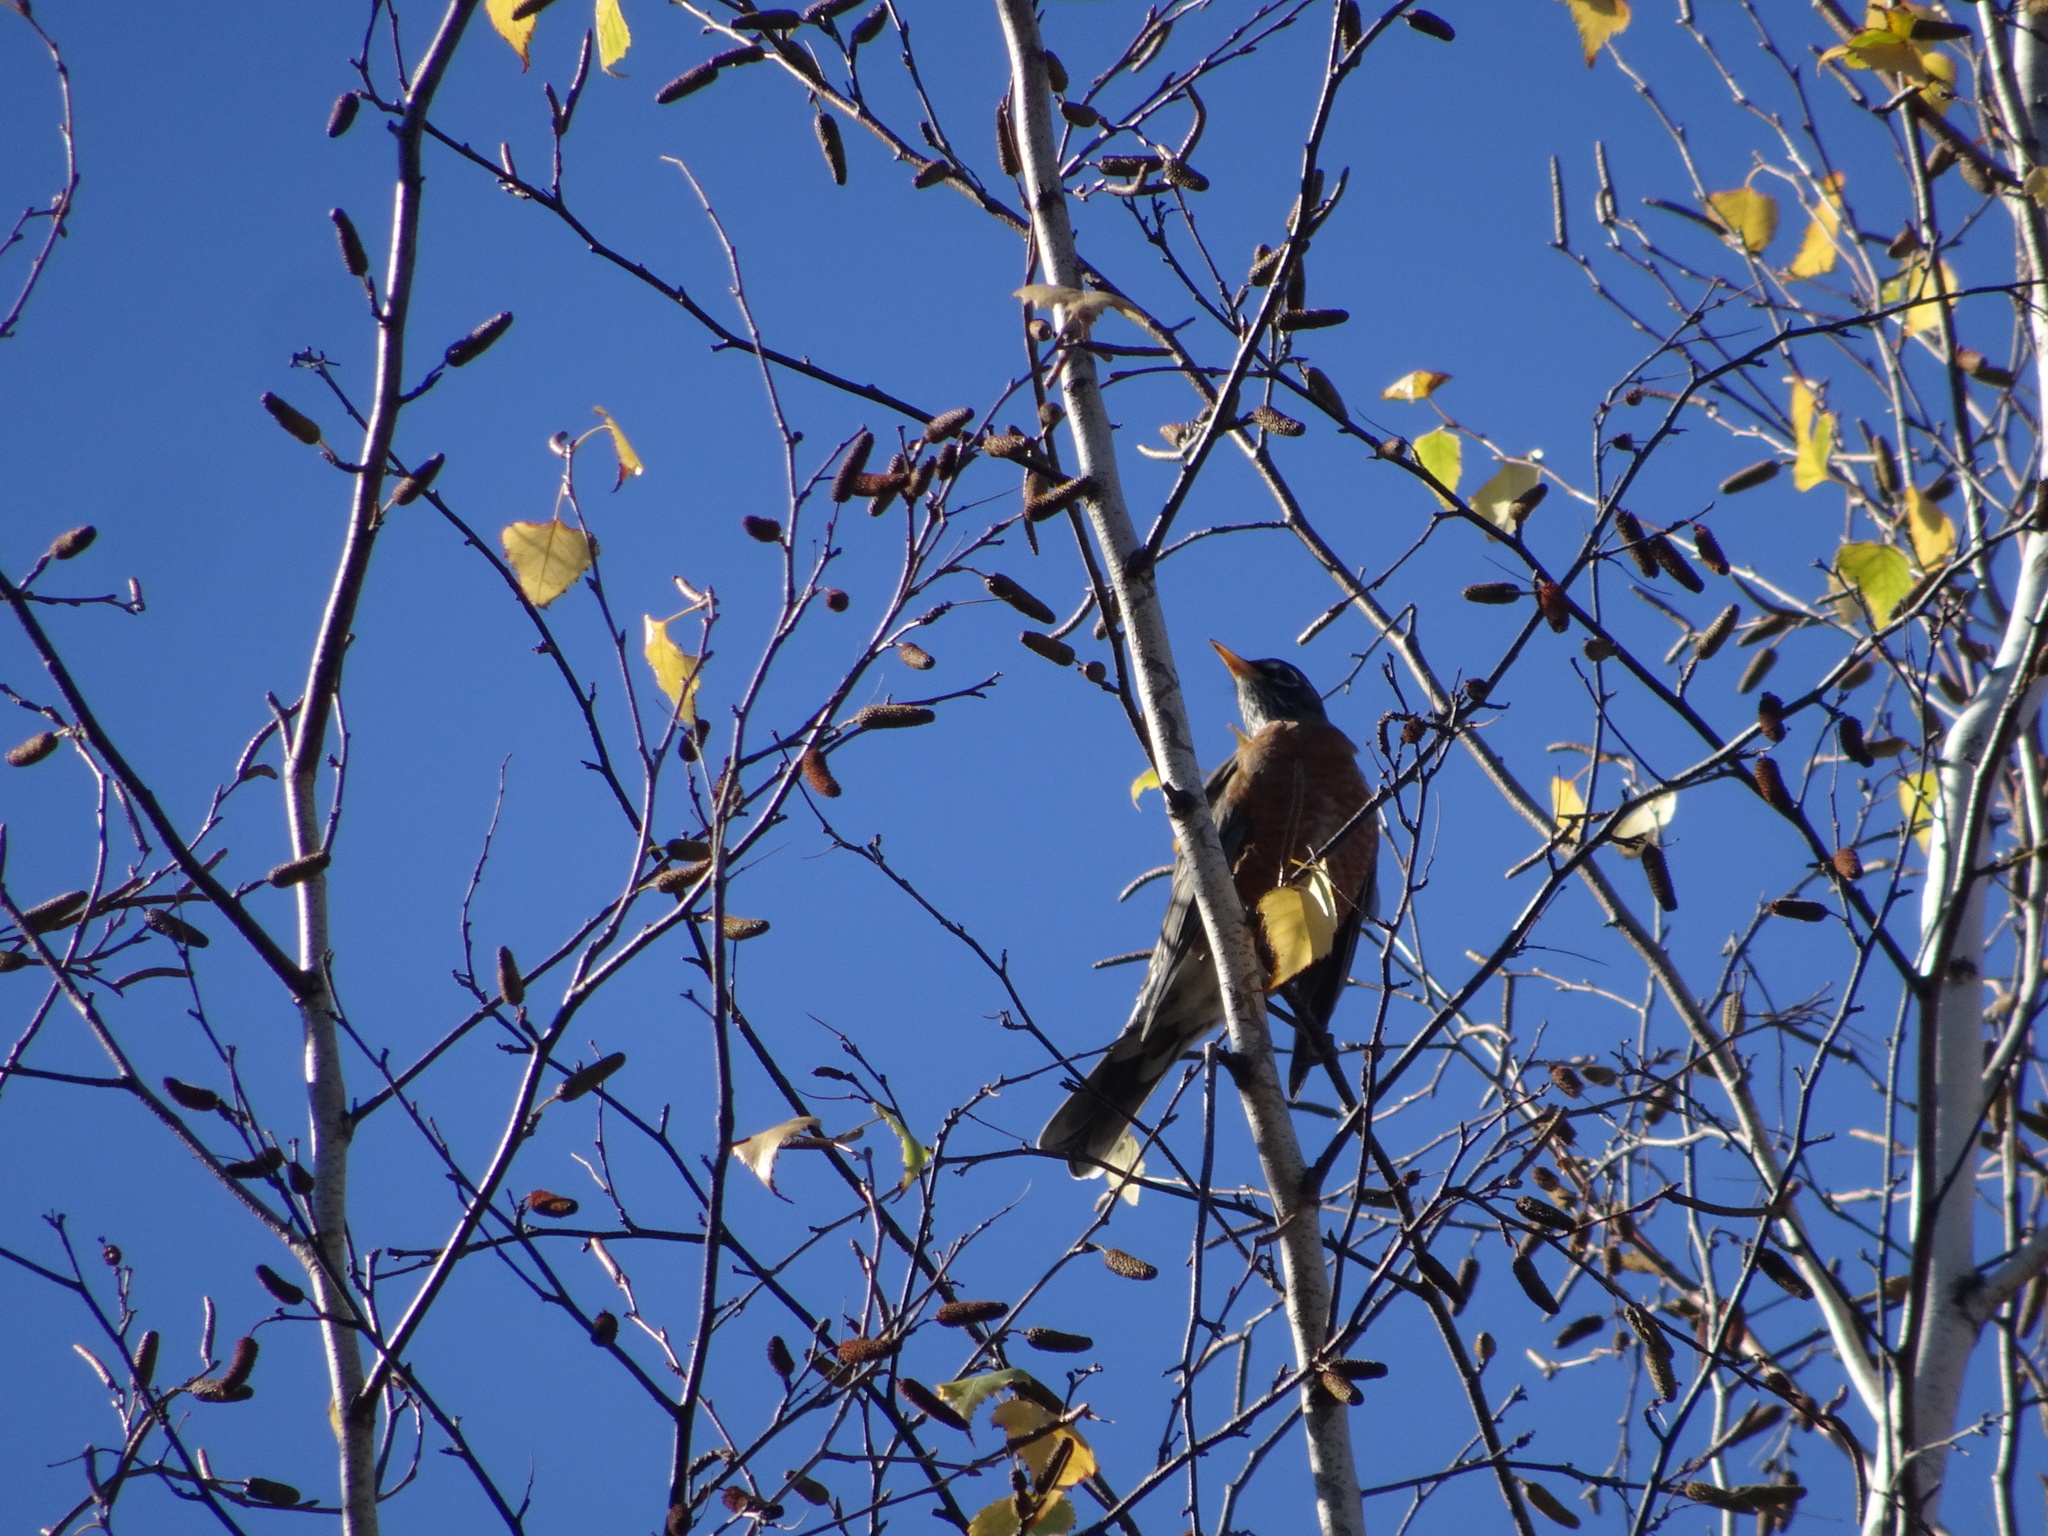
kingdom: Animalia
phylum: Chordata
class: Aves
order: Passeriformes
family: Turdidae
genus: Turdus
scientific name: Turdus migratorius
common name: American robin
